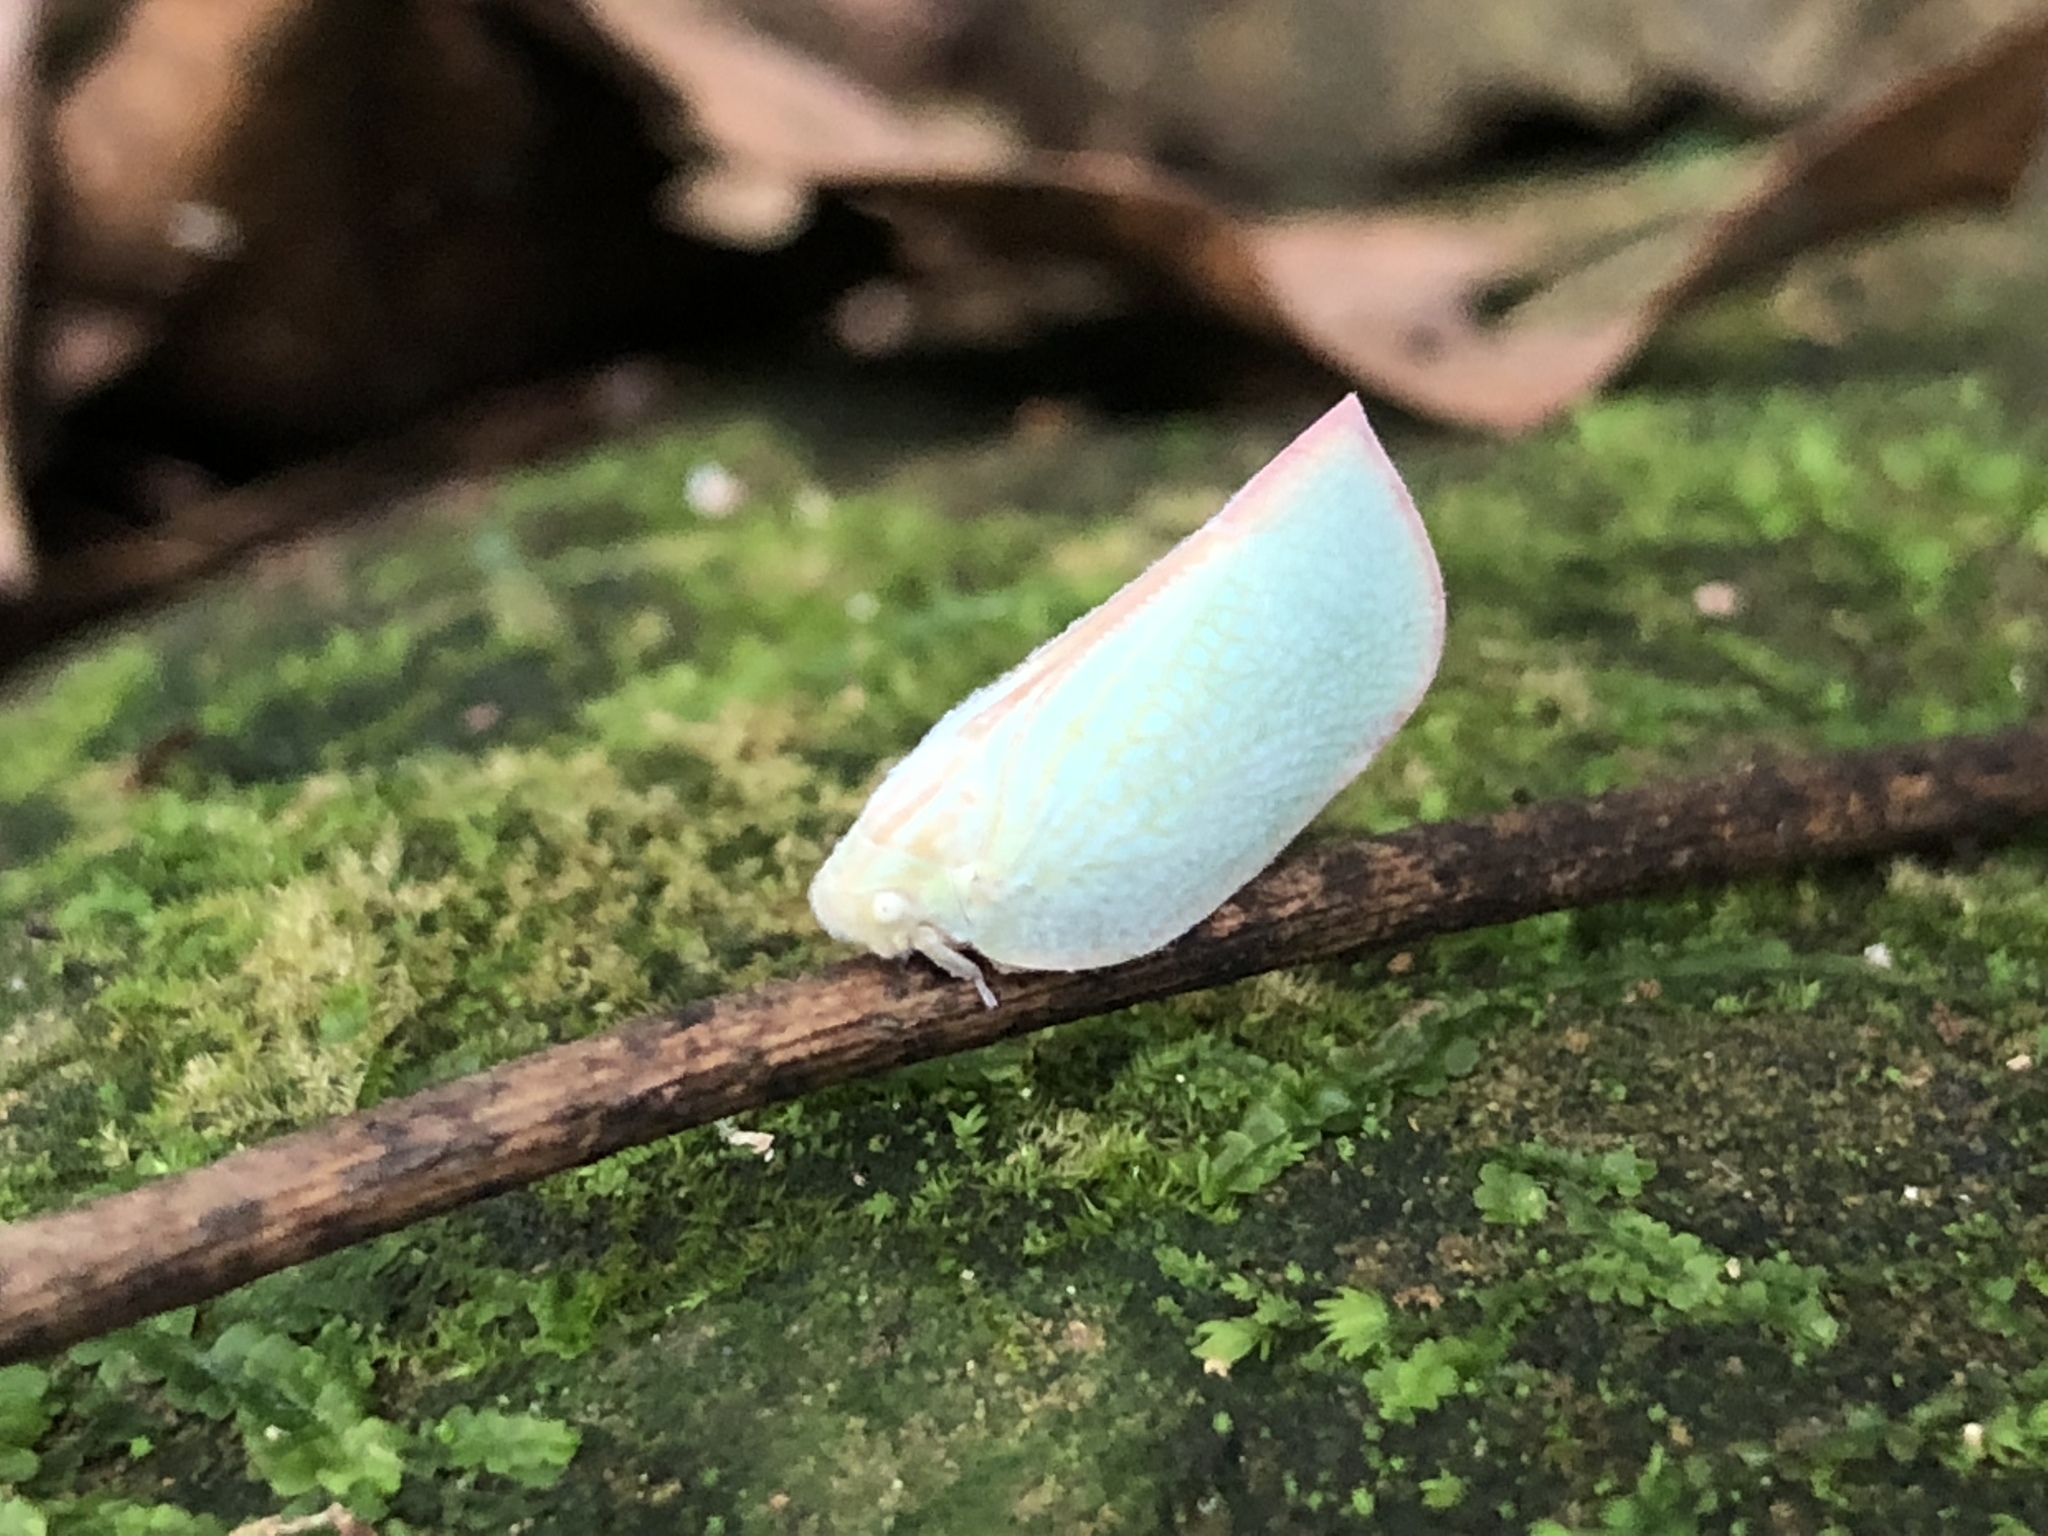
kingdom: Animalia
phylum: Arthropoda
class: Insecta
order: Hemiptera
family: Flatidae
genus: Geisha
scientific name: Geisha distinctissima
